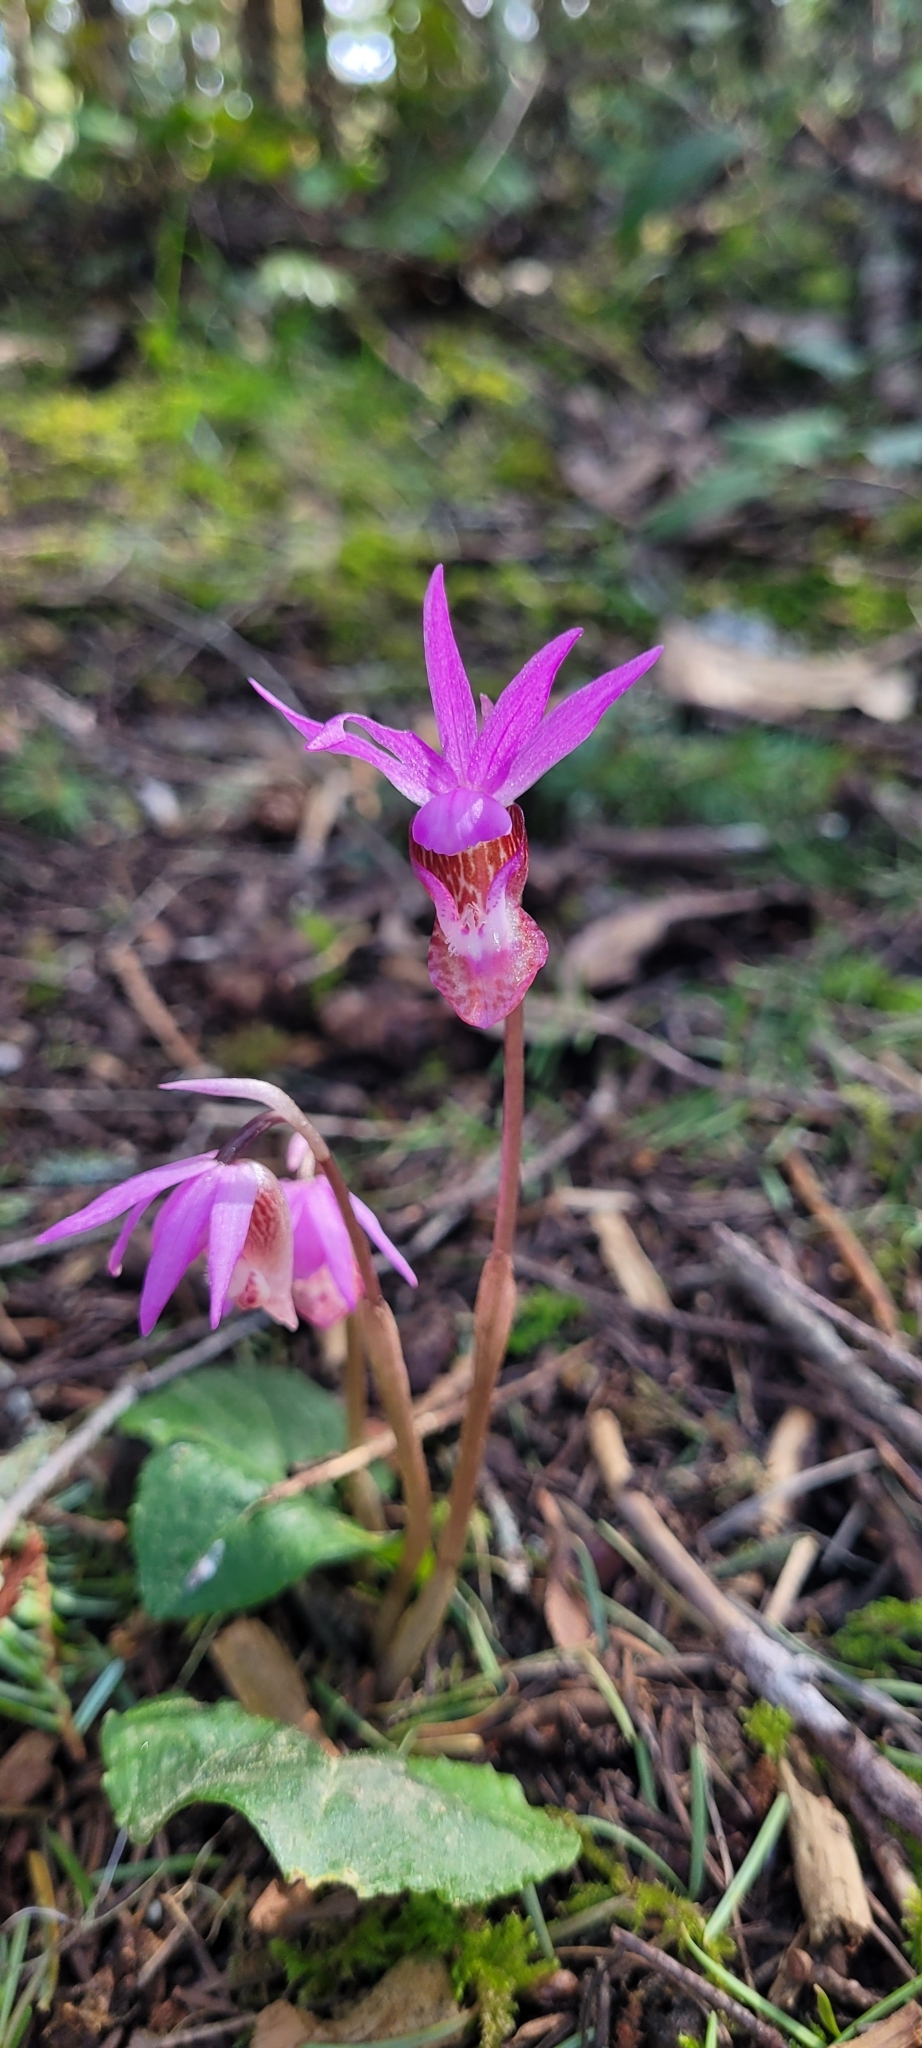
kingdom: Plantae
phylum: Tracheophyta
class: Liliopsida
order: Asparagales
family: Orchidaceae
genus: Calypso
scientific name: Calypso bulbosa
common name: Calypso
